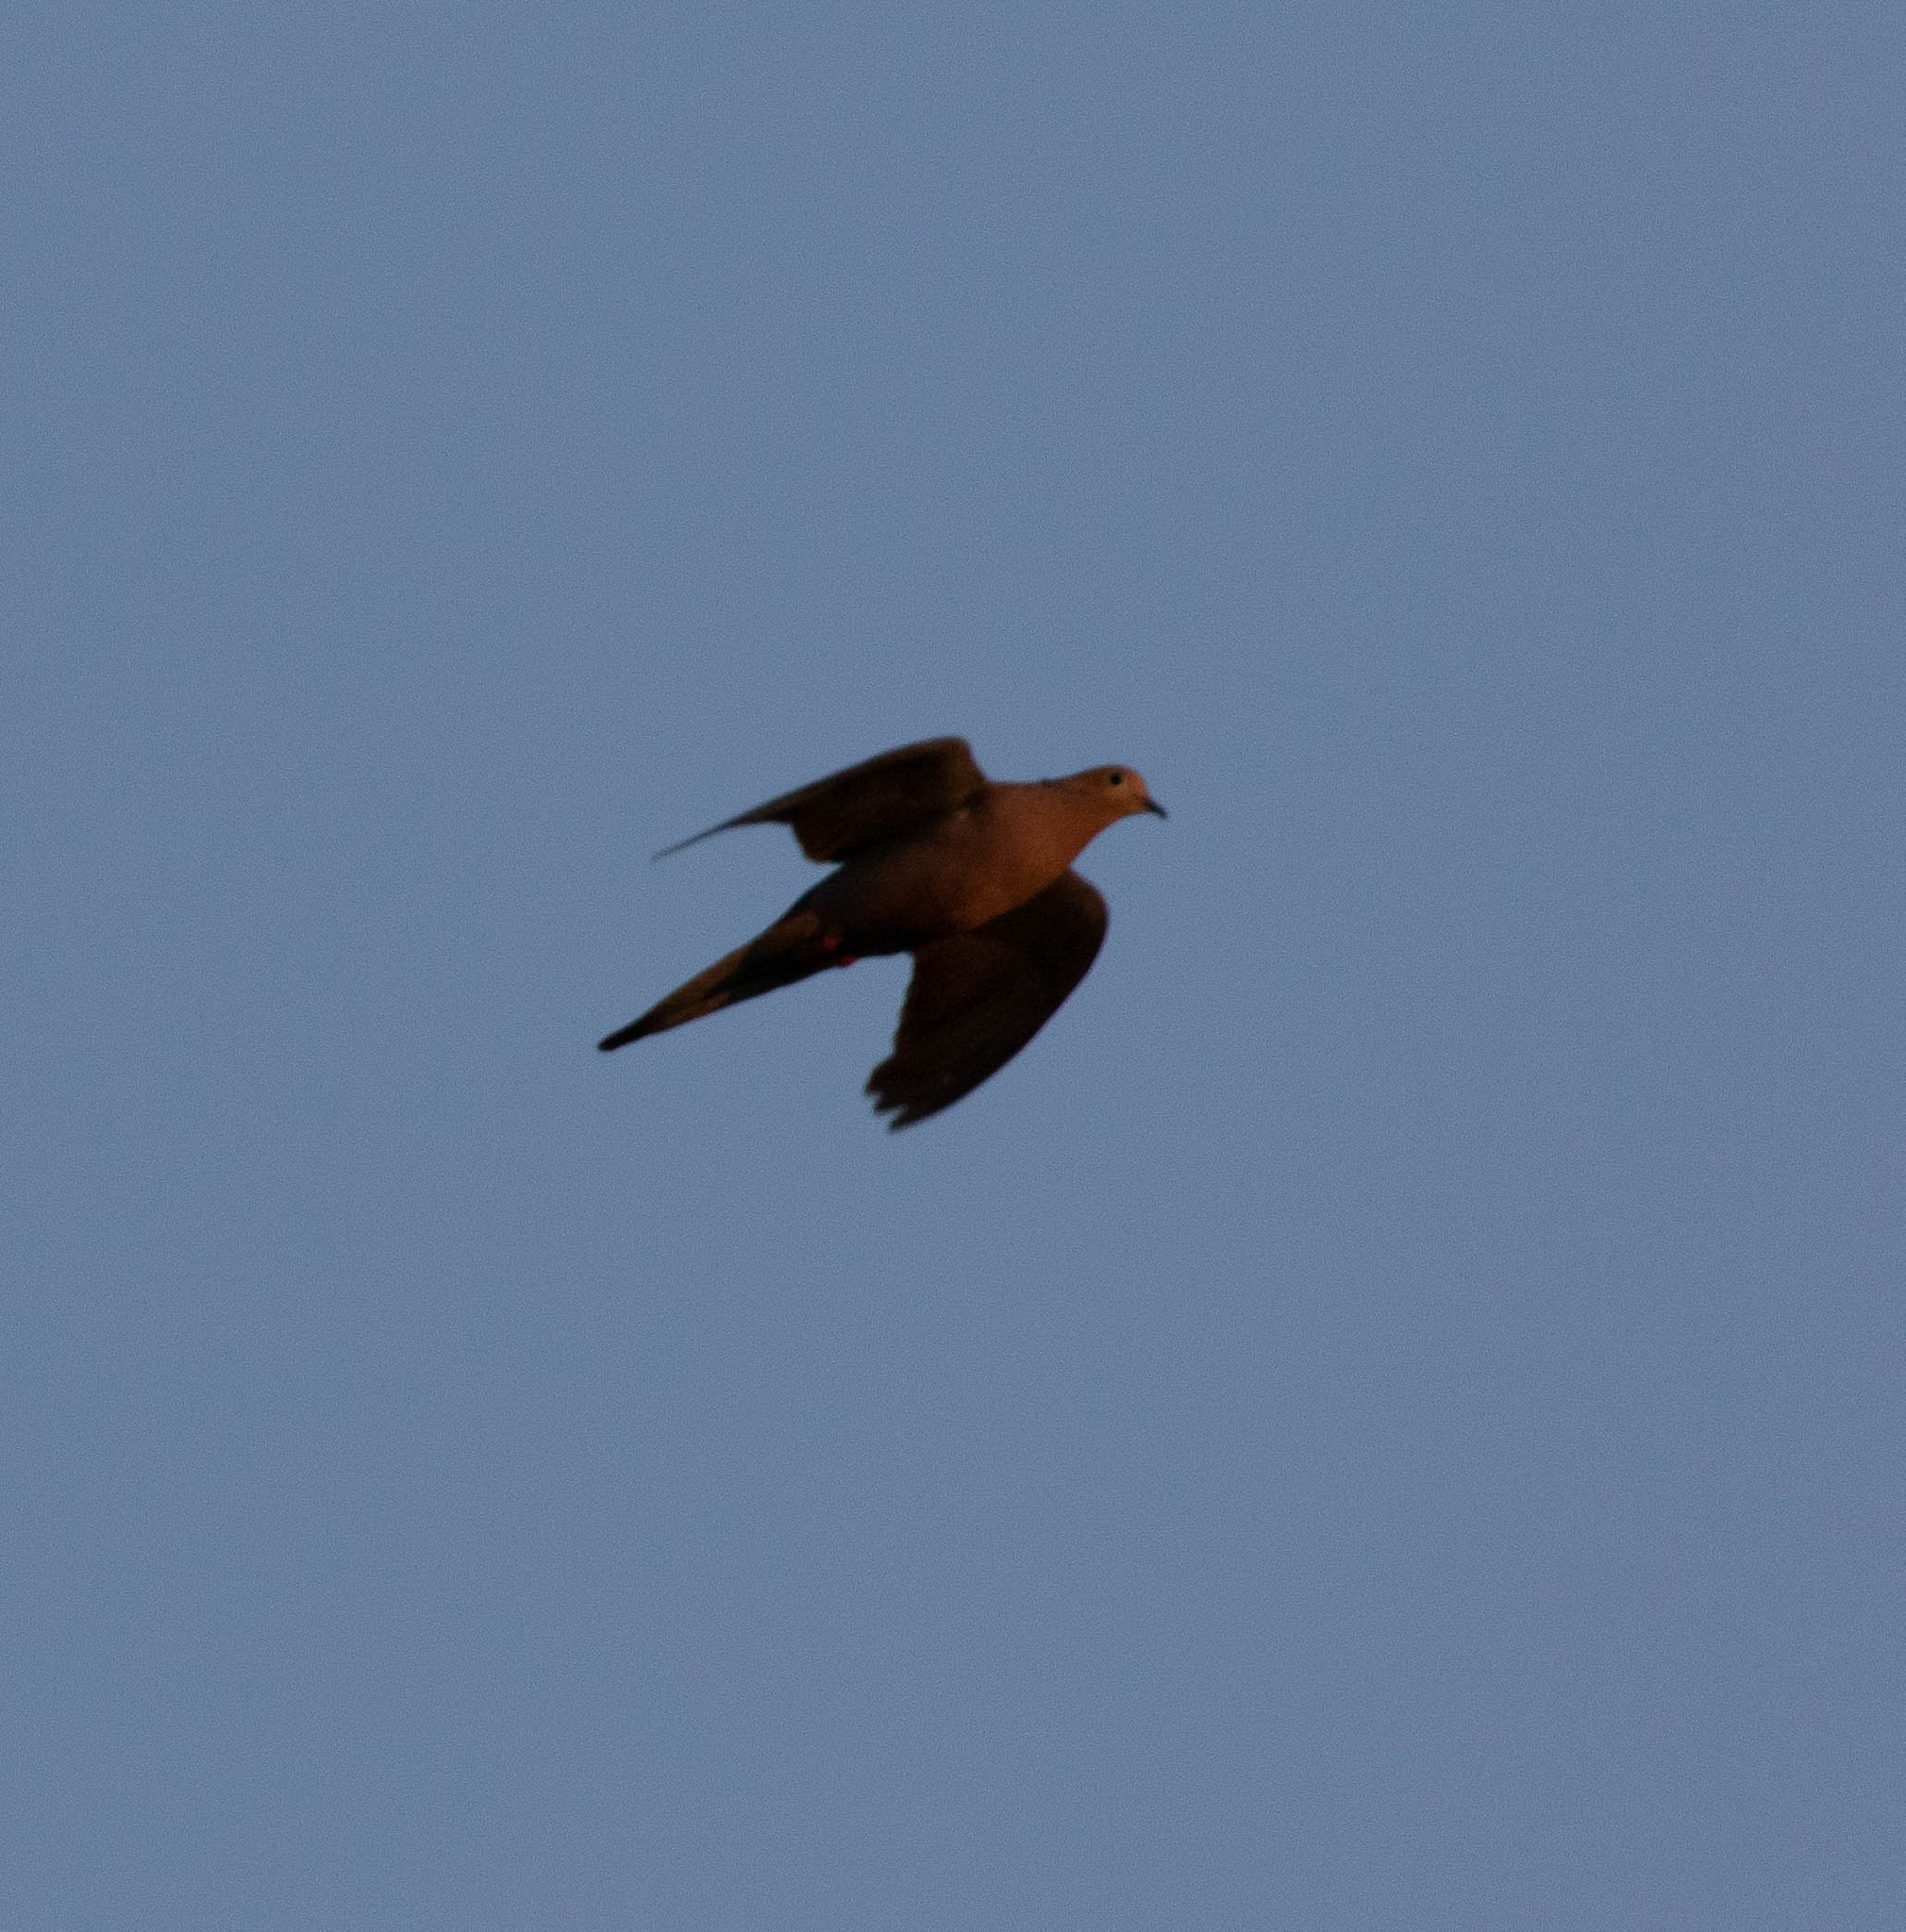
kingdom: Animalia
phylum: Chordata
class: Aves
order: Columbiformes
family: Columbidae
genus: Zenaida
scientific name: Zenaida macroura
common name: Mourning dove
